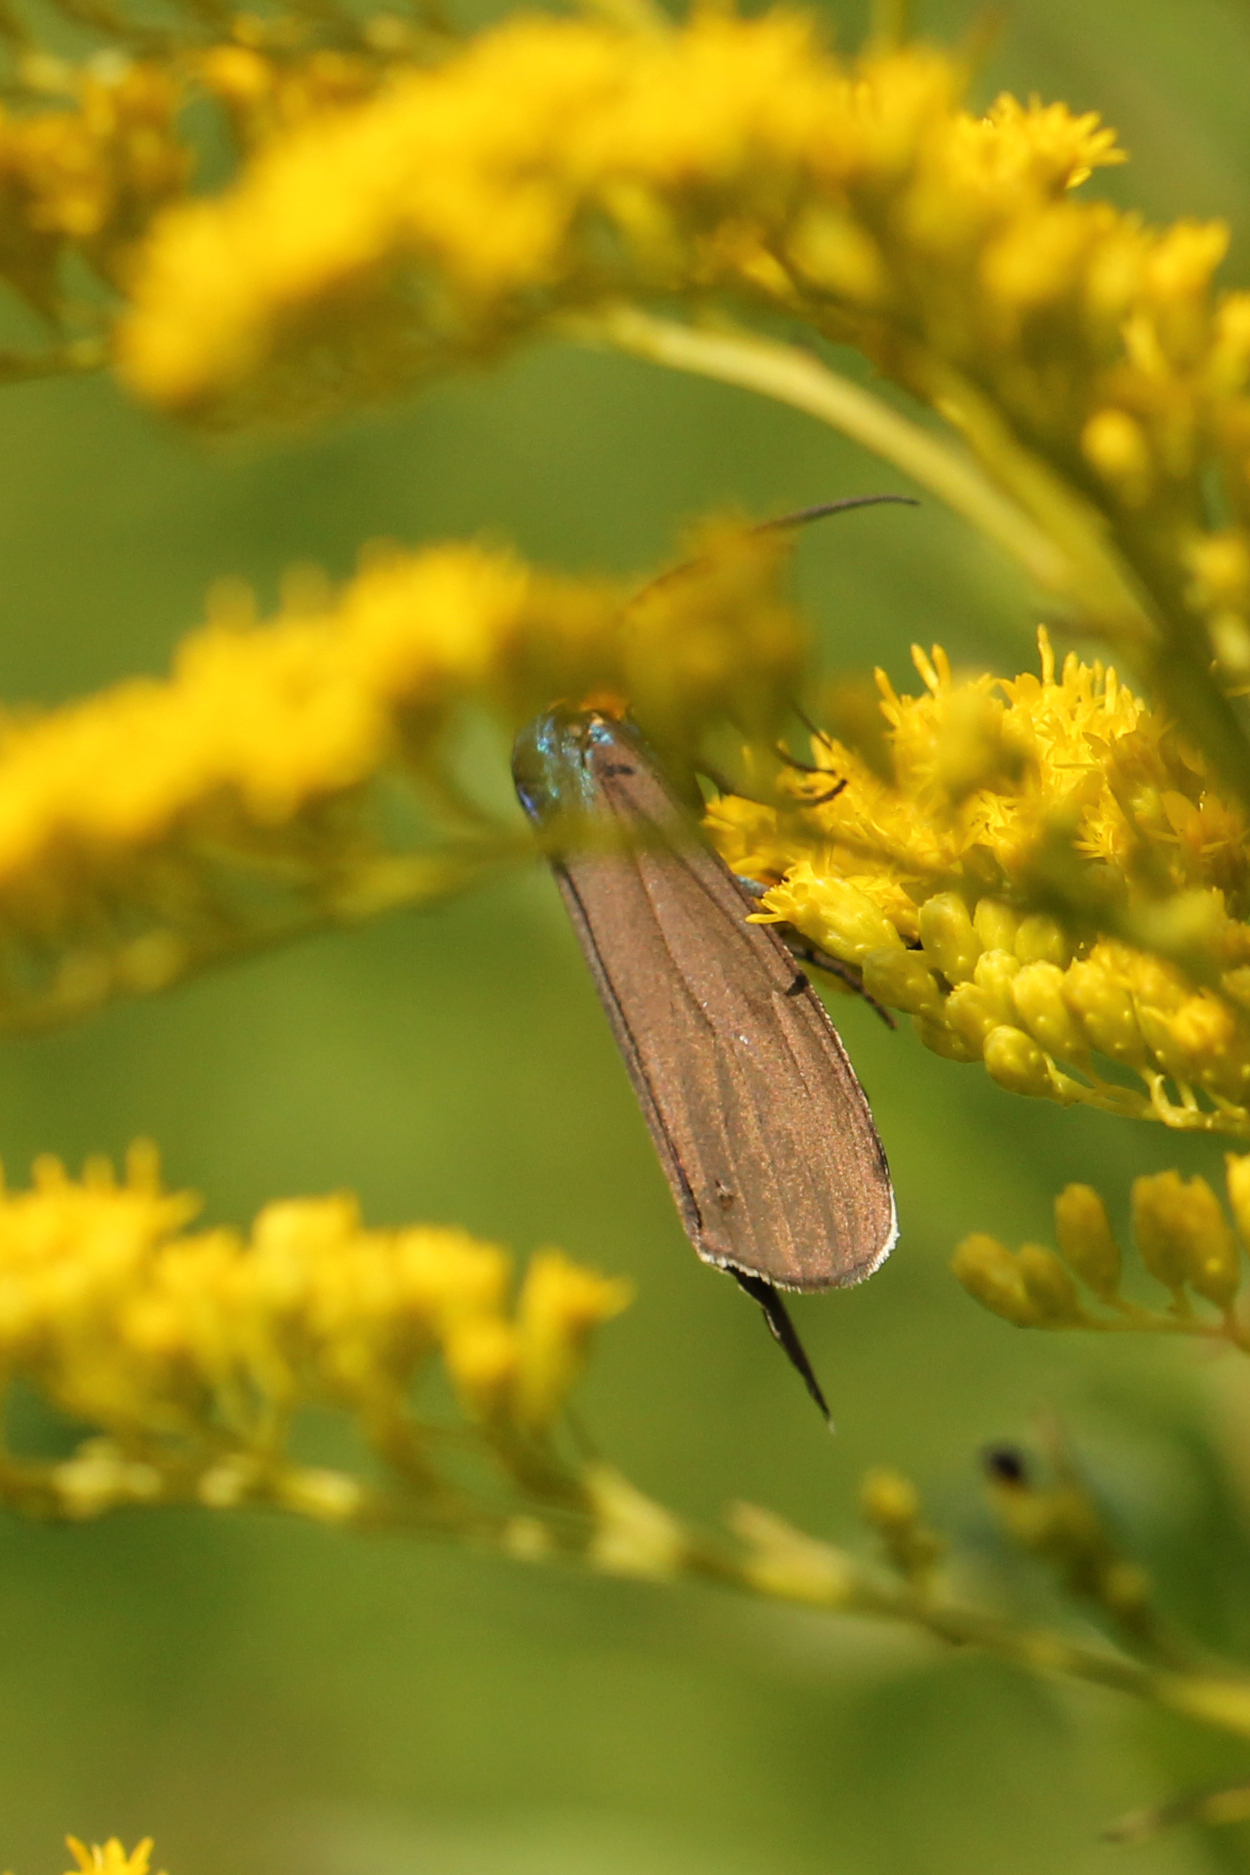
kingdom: Animalia
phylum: Arthropoda
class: Insecta
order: Lepidoptera
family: Erebidae
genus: Ctenucha
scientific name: Ctenucha virginica
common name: Virginia ctenucha moth
